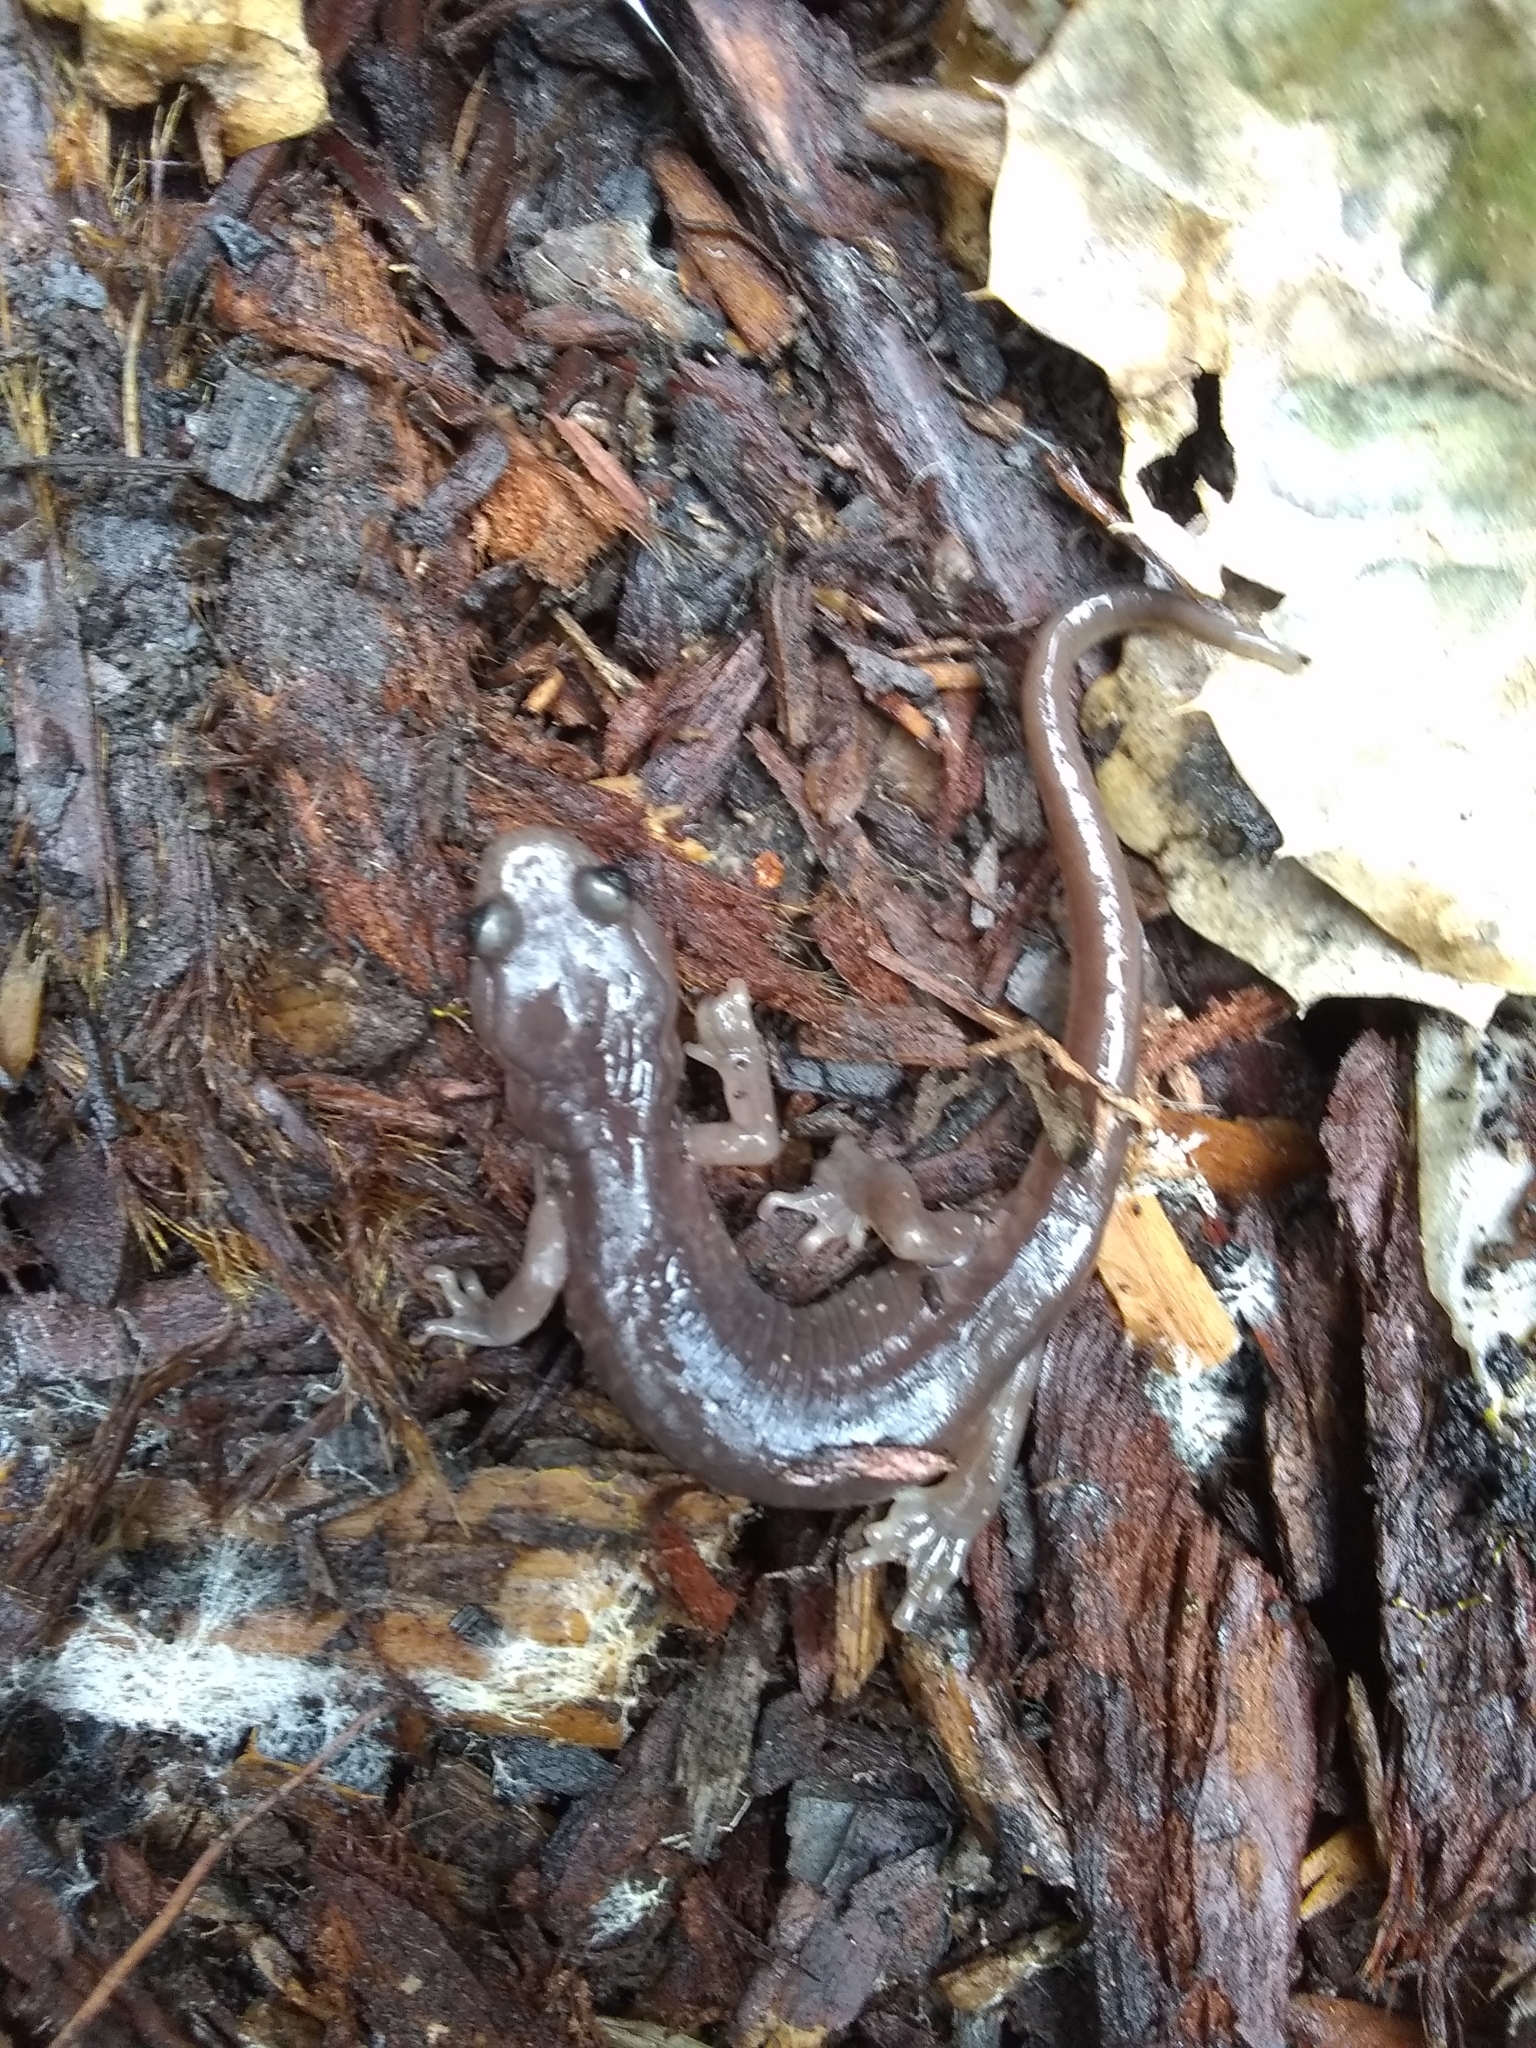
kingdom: Animalia
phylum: Chordata
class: Amphibia
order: Caudata
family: Plethodontidae
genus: Aneides
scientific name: Aneides lugubris
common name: Arboreal salamander
